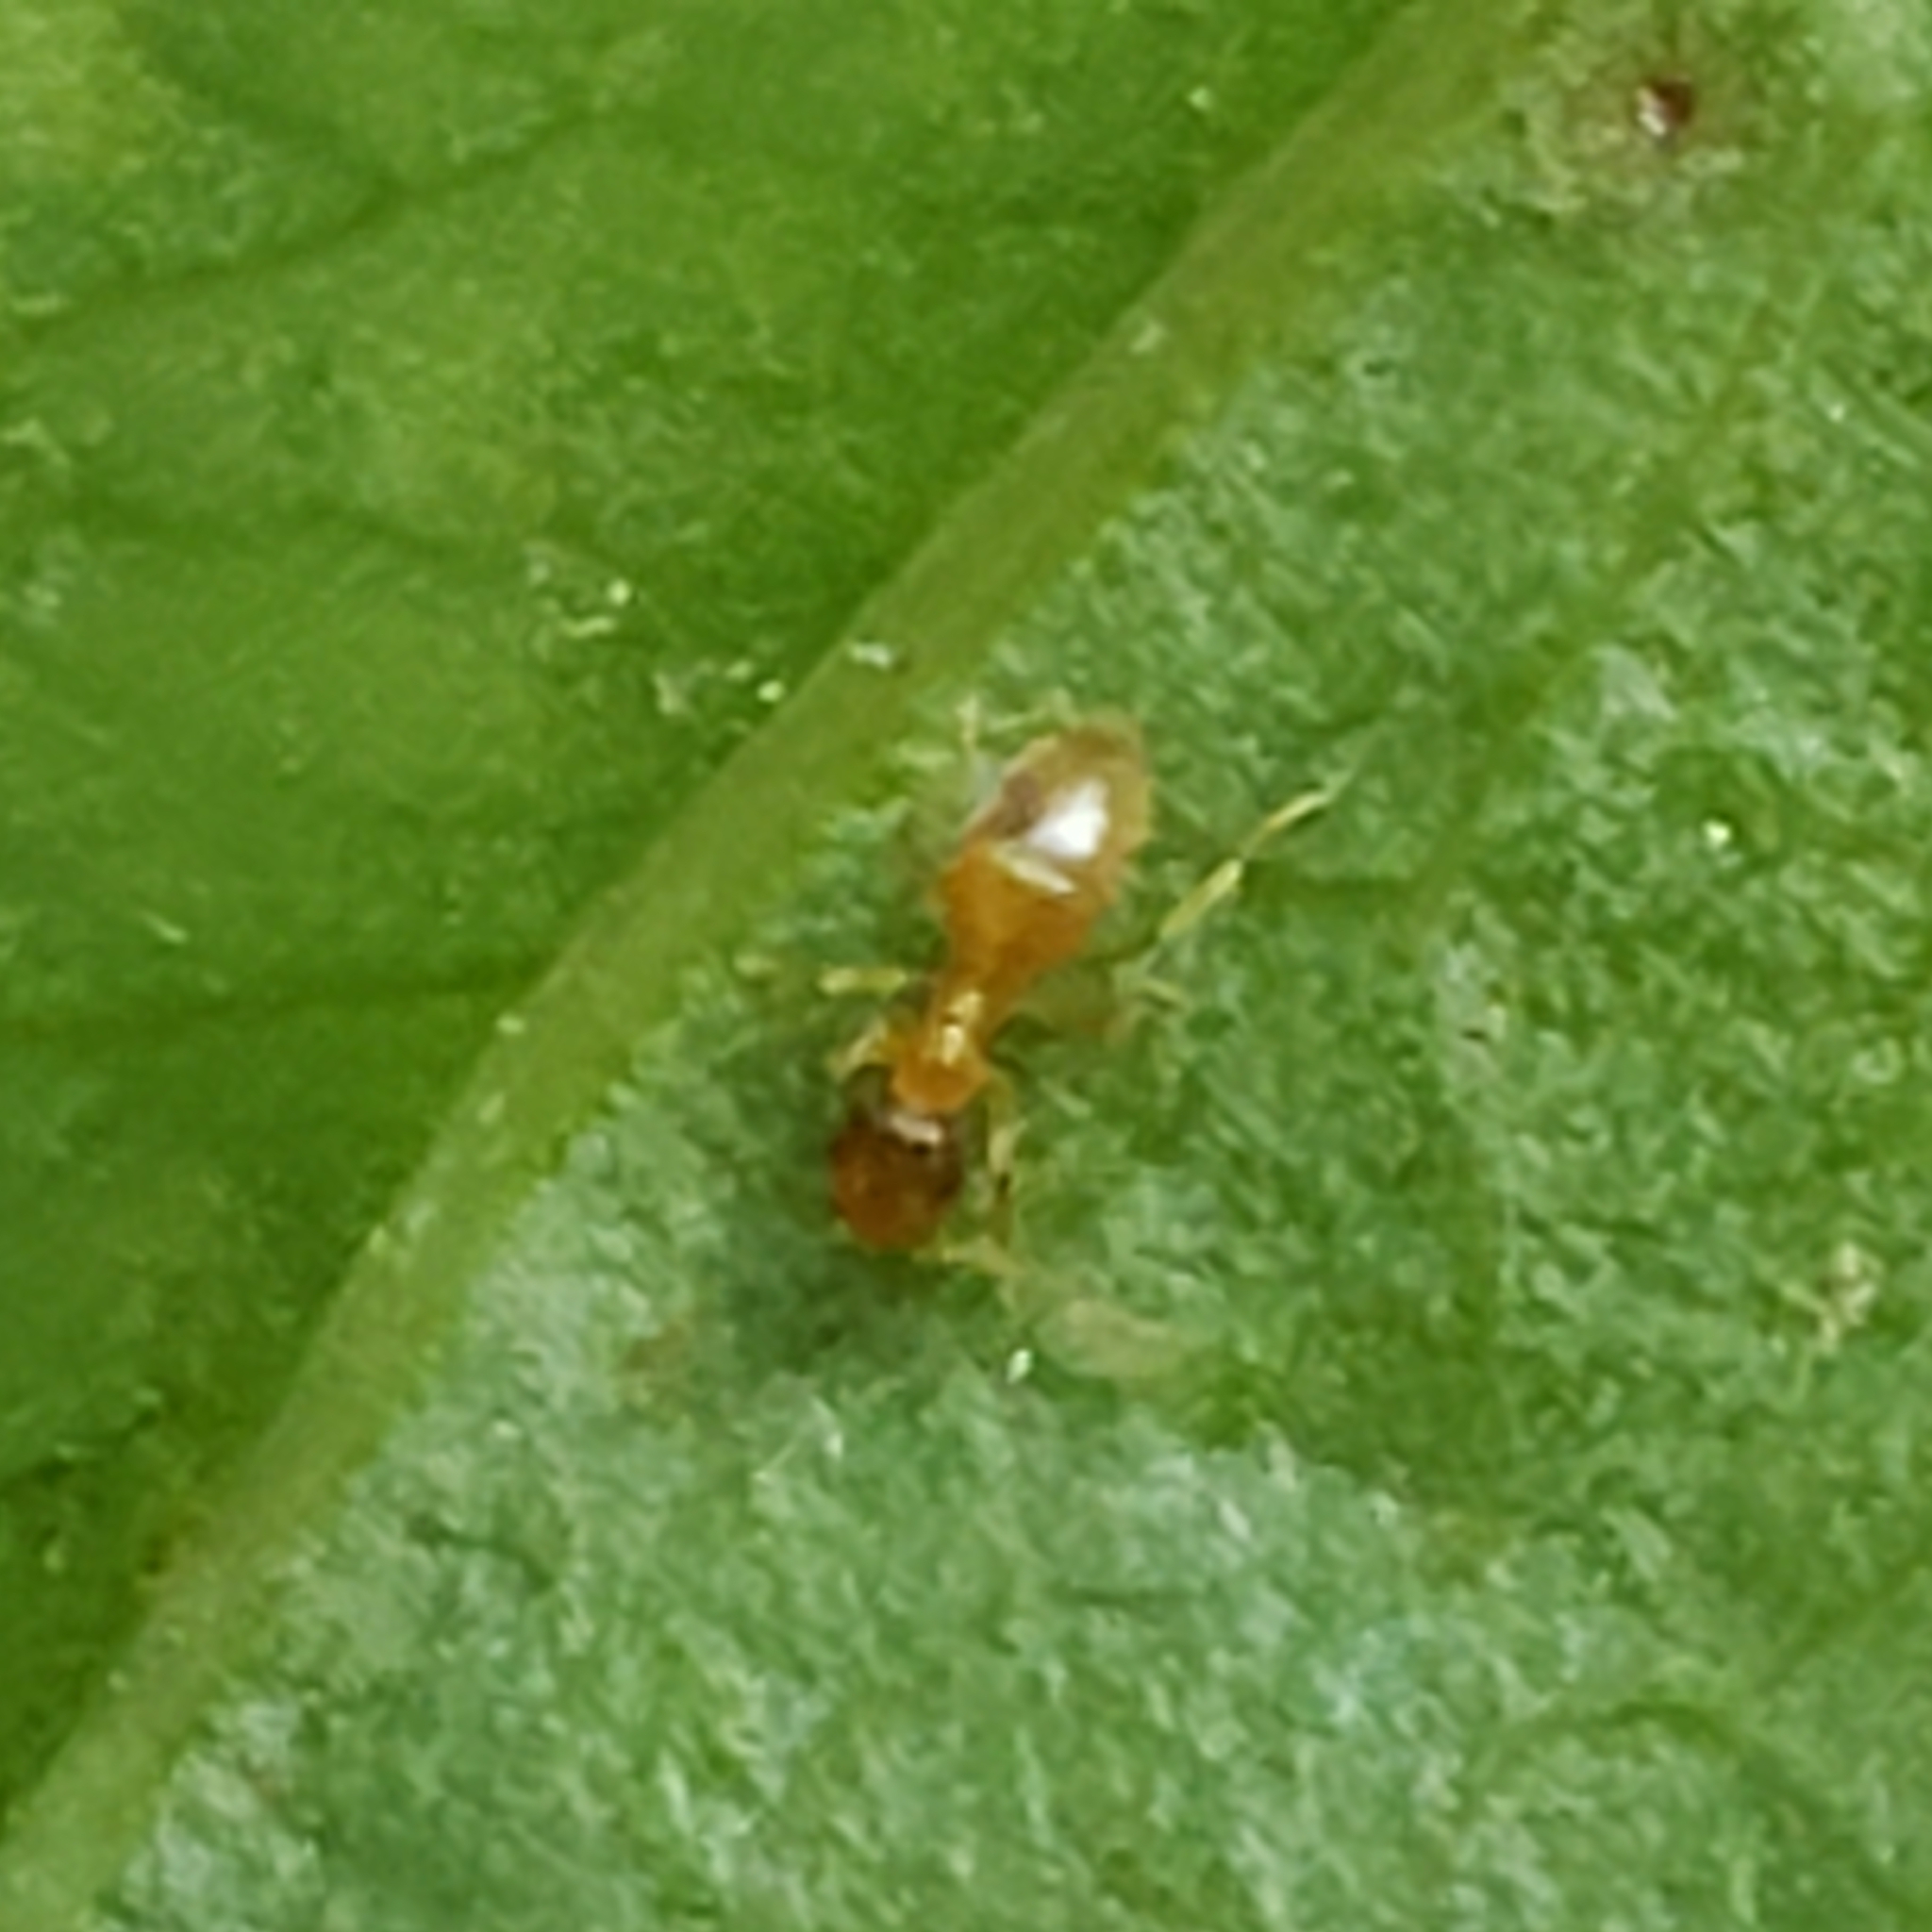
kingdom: Animalia
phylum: Arthropoda
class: Insecta
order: Hymenoptera
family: Formicidae
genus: Brachymyrmex
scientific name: Brachymyrmex depilis
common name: Hairless rover ant
